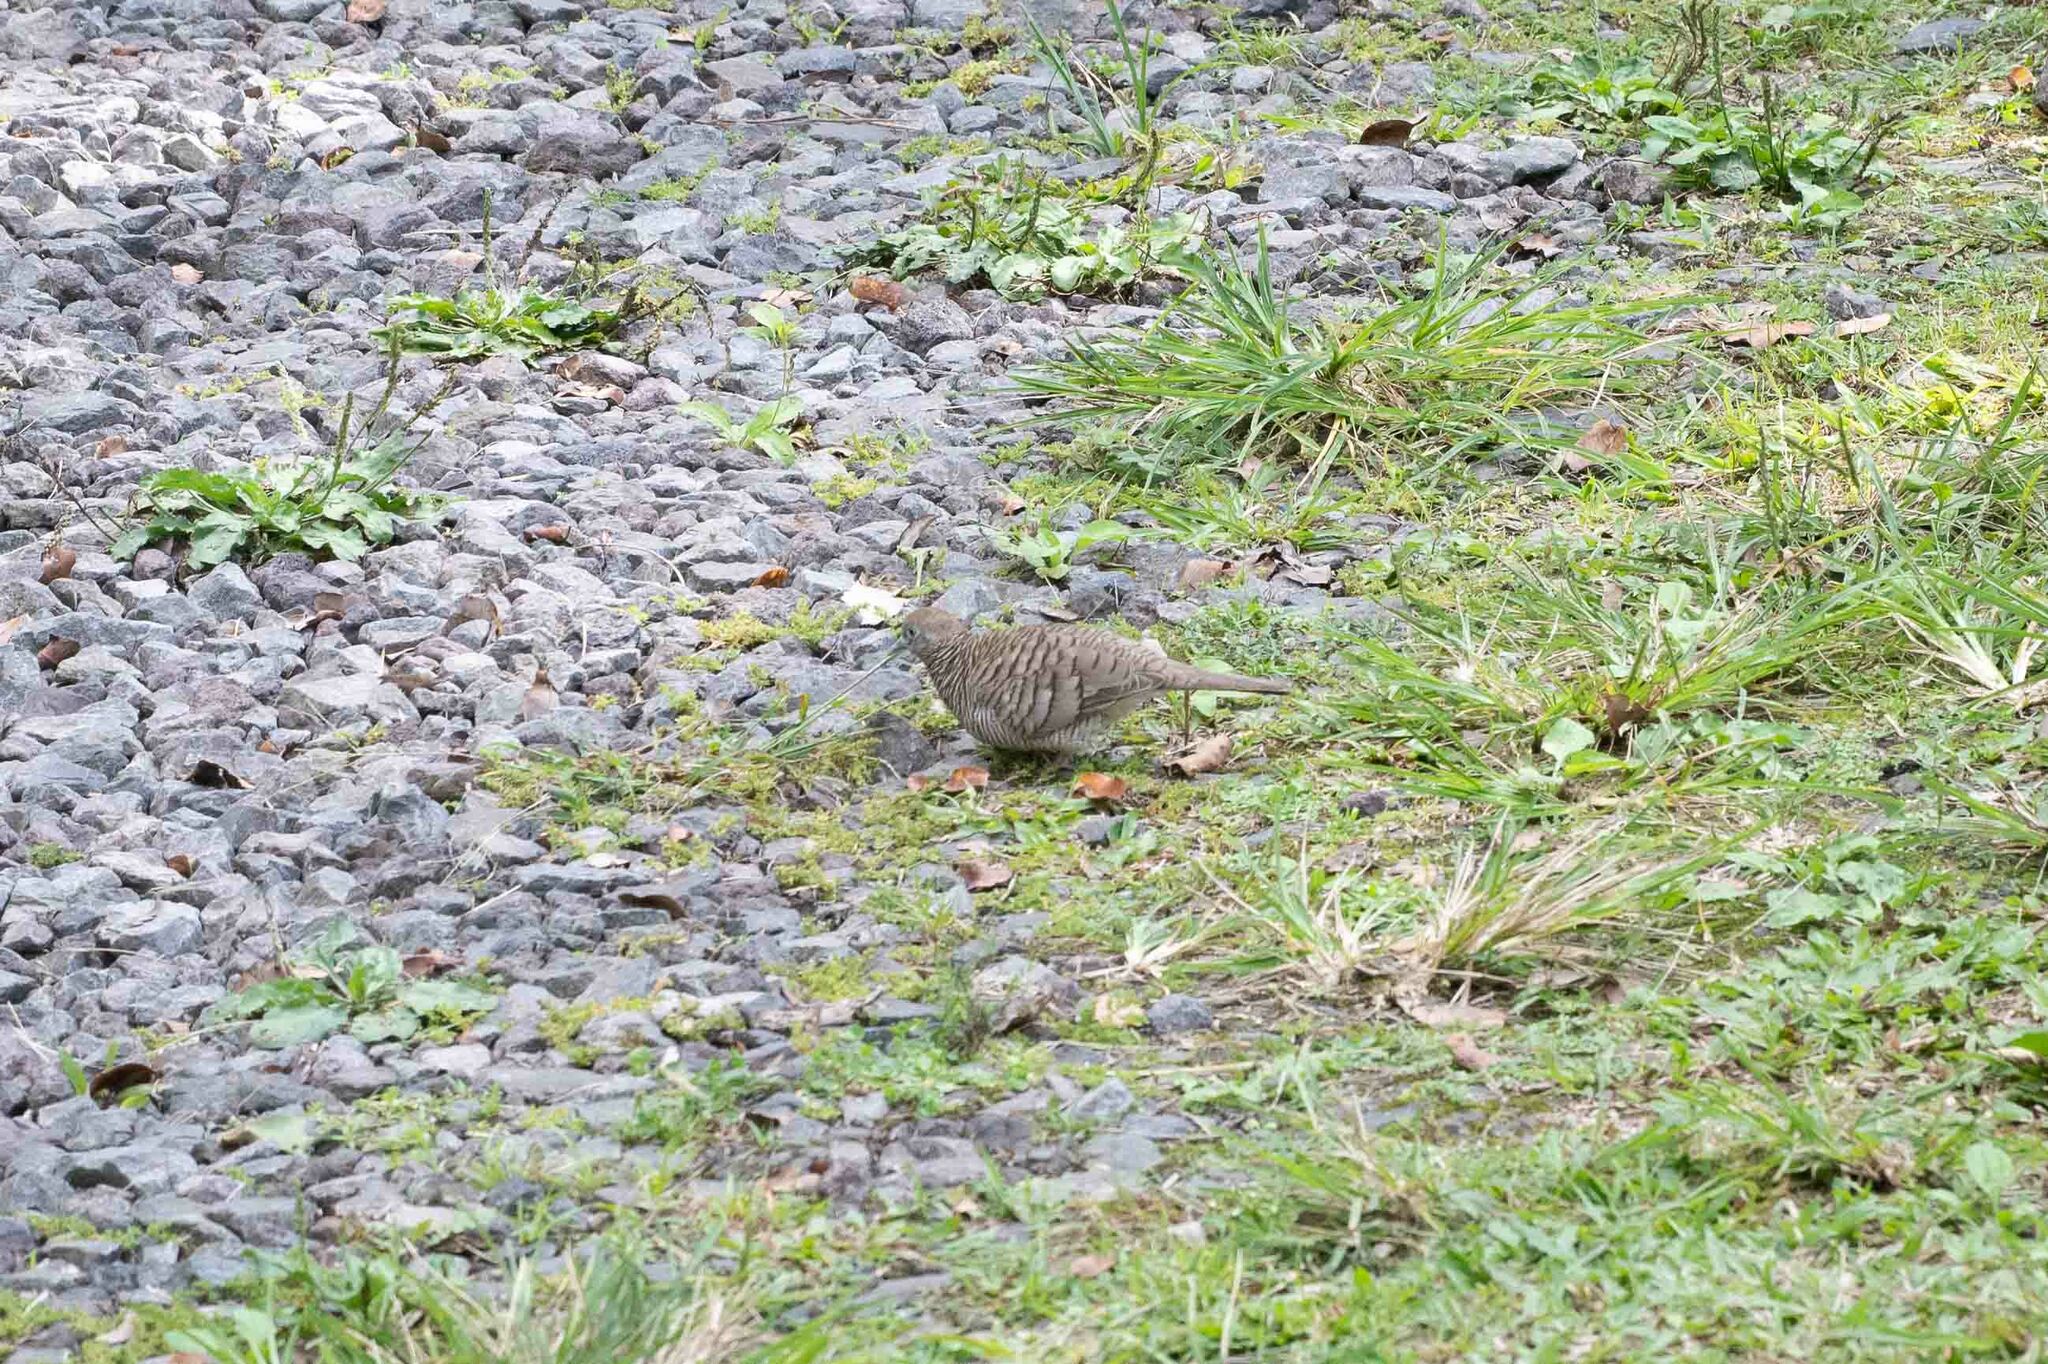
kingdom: Animalia
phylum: Chordata
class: Aves
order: Columbiformes
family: Columbidae
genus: Geopelia
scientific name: Geopelia striata
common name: Zebra dove
